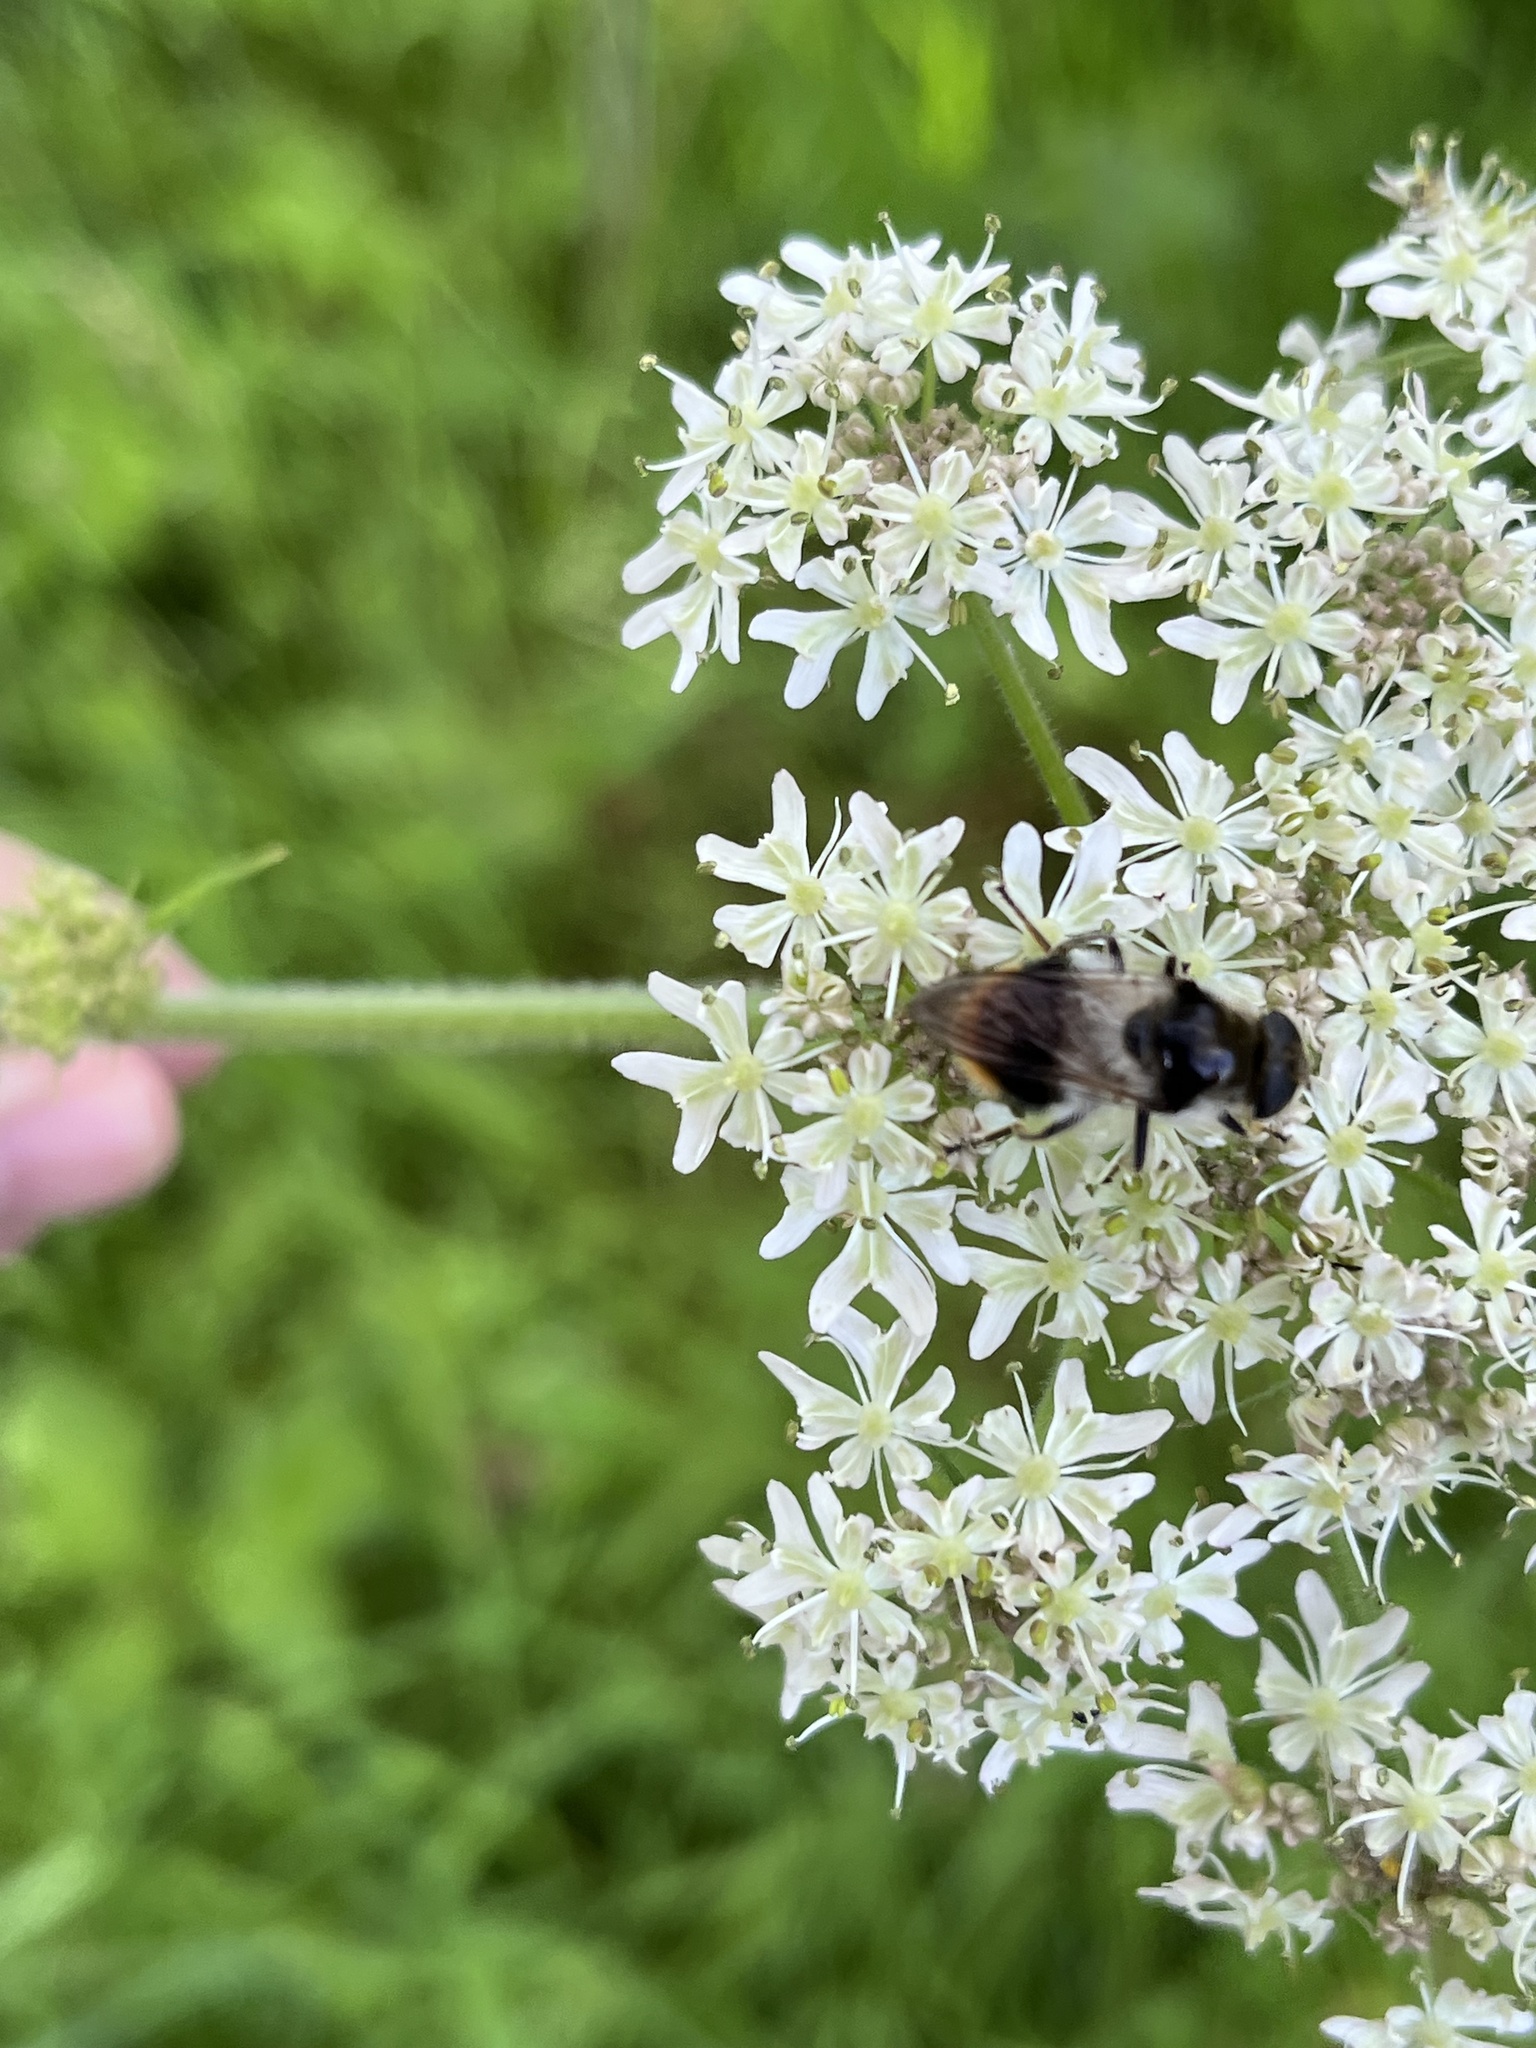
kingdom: Animalia
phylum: Arthropoda
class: Insecta
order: Diptera
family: Syrphidae
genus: Cheilosia
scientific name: Cheilosia illustrata
